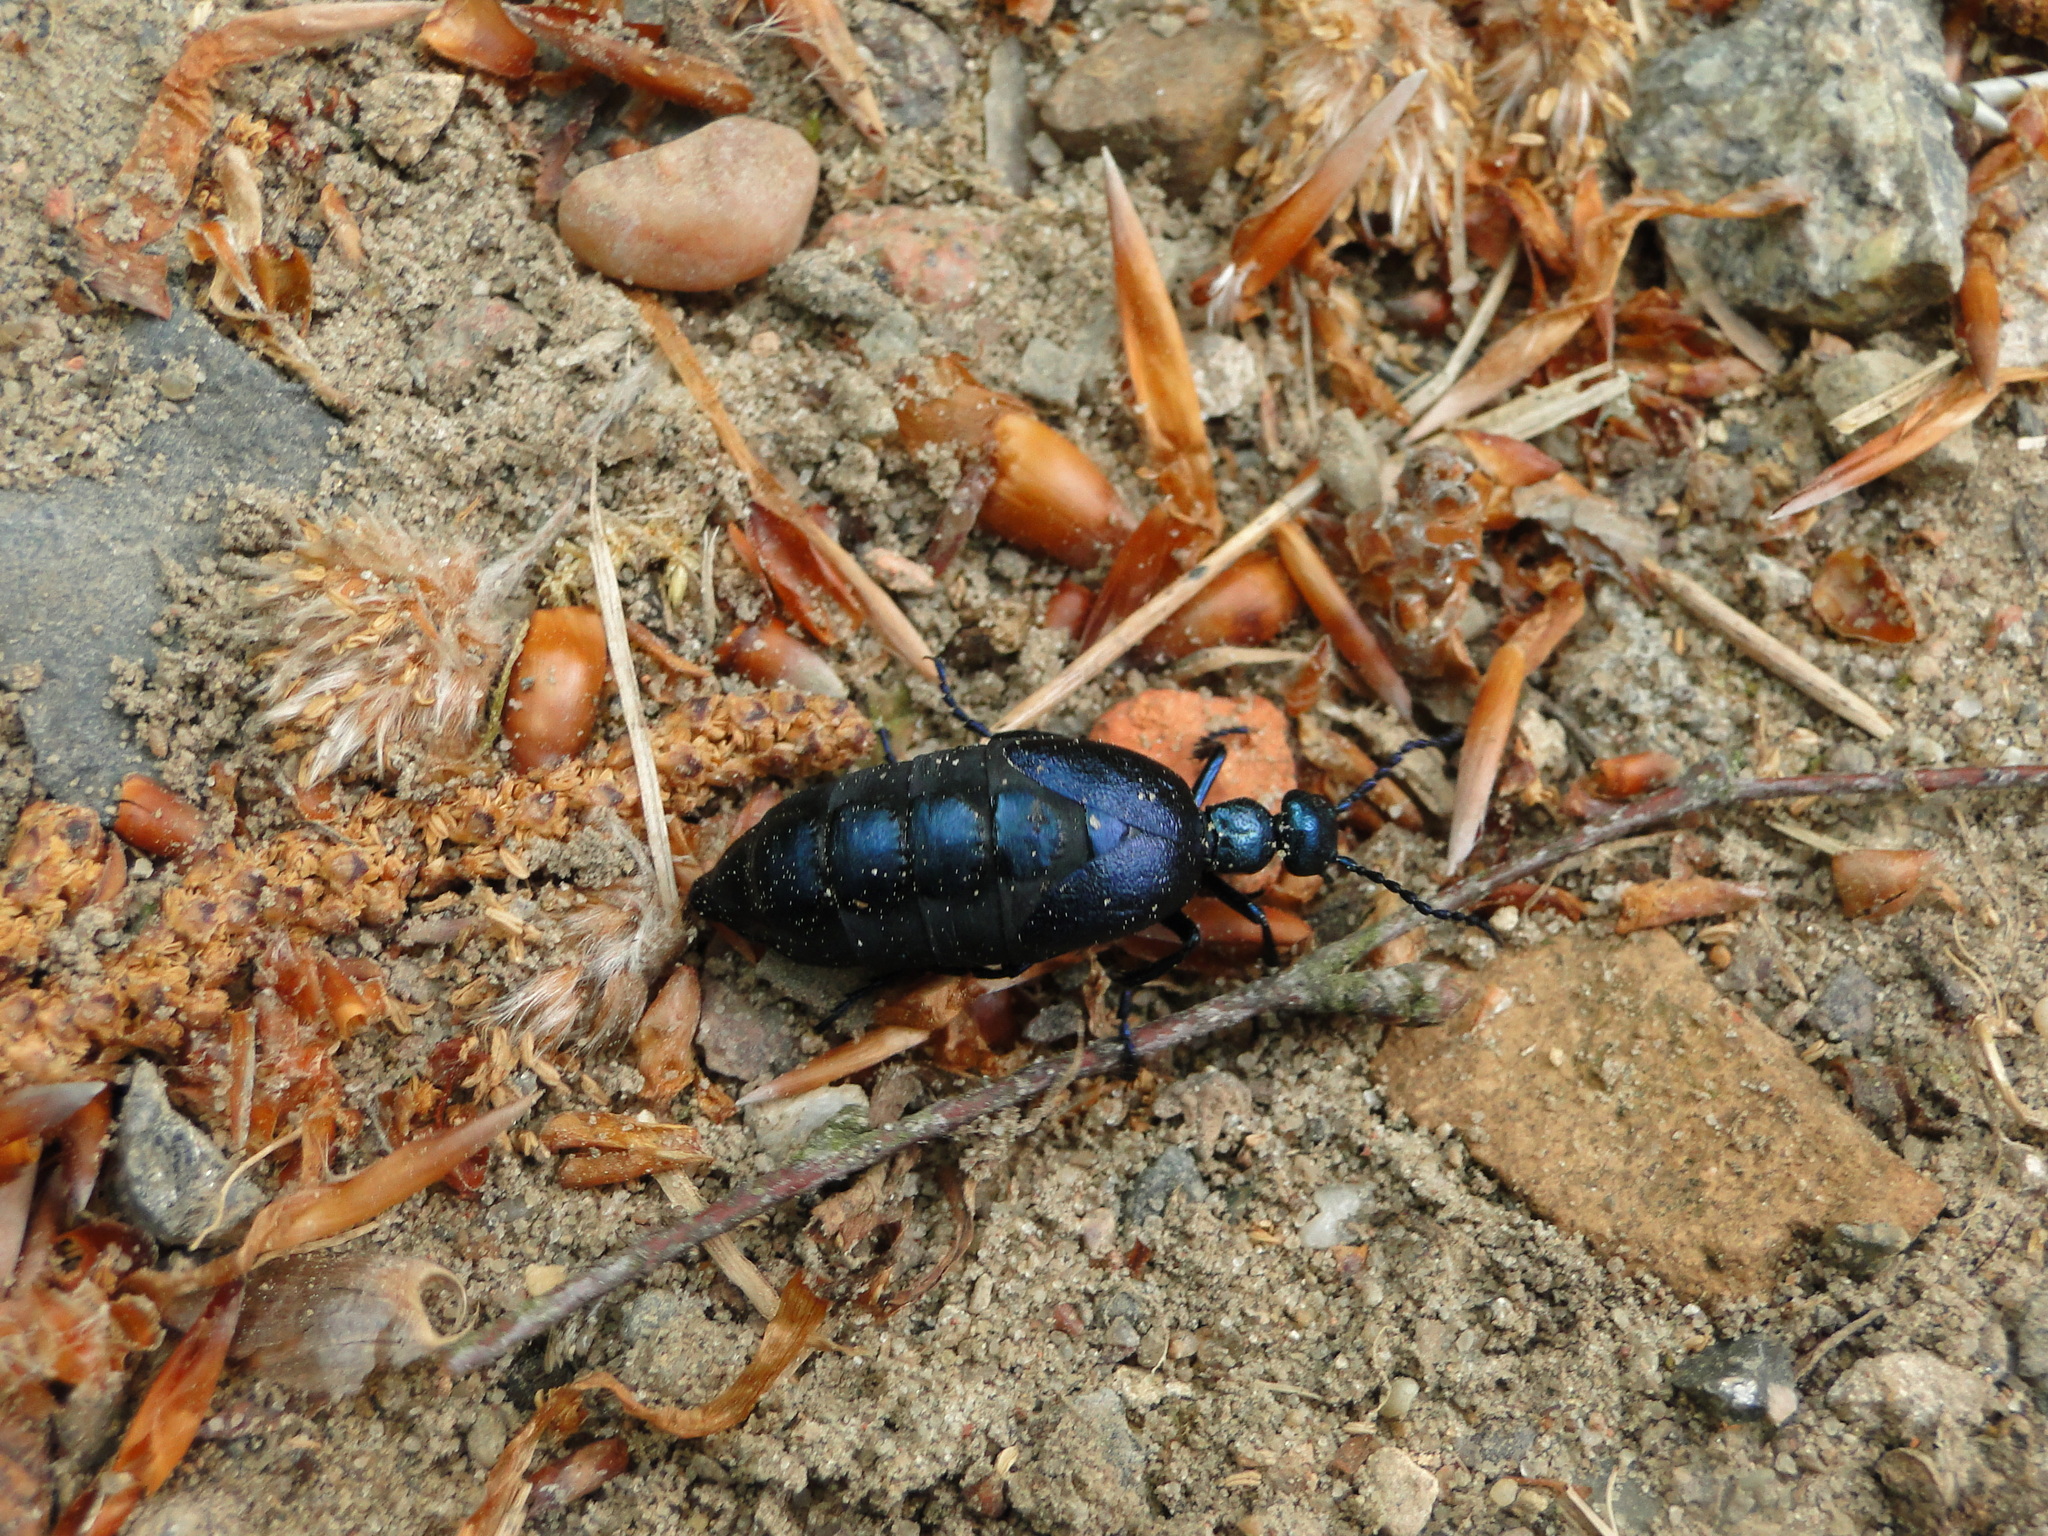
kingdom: Animalia
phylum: Arthropoda
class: Insecta
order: Coleoptera
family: Meloidae
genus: Meloe
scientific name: Meloe violaceus
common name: Violet oil-beetle
